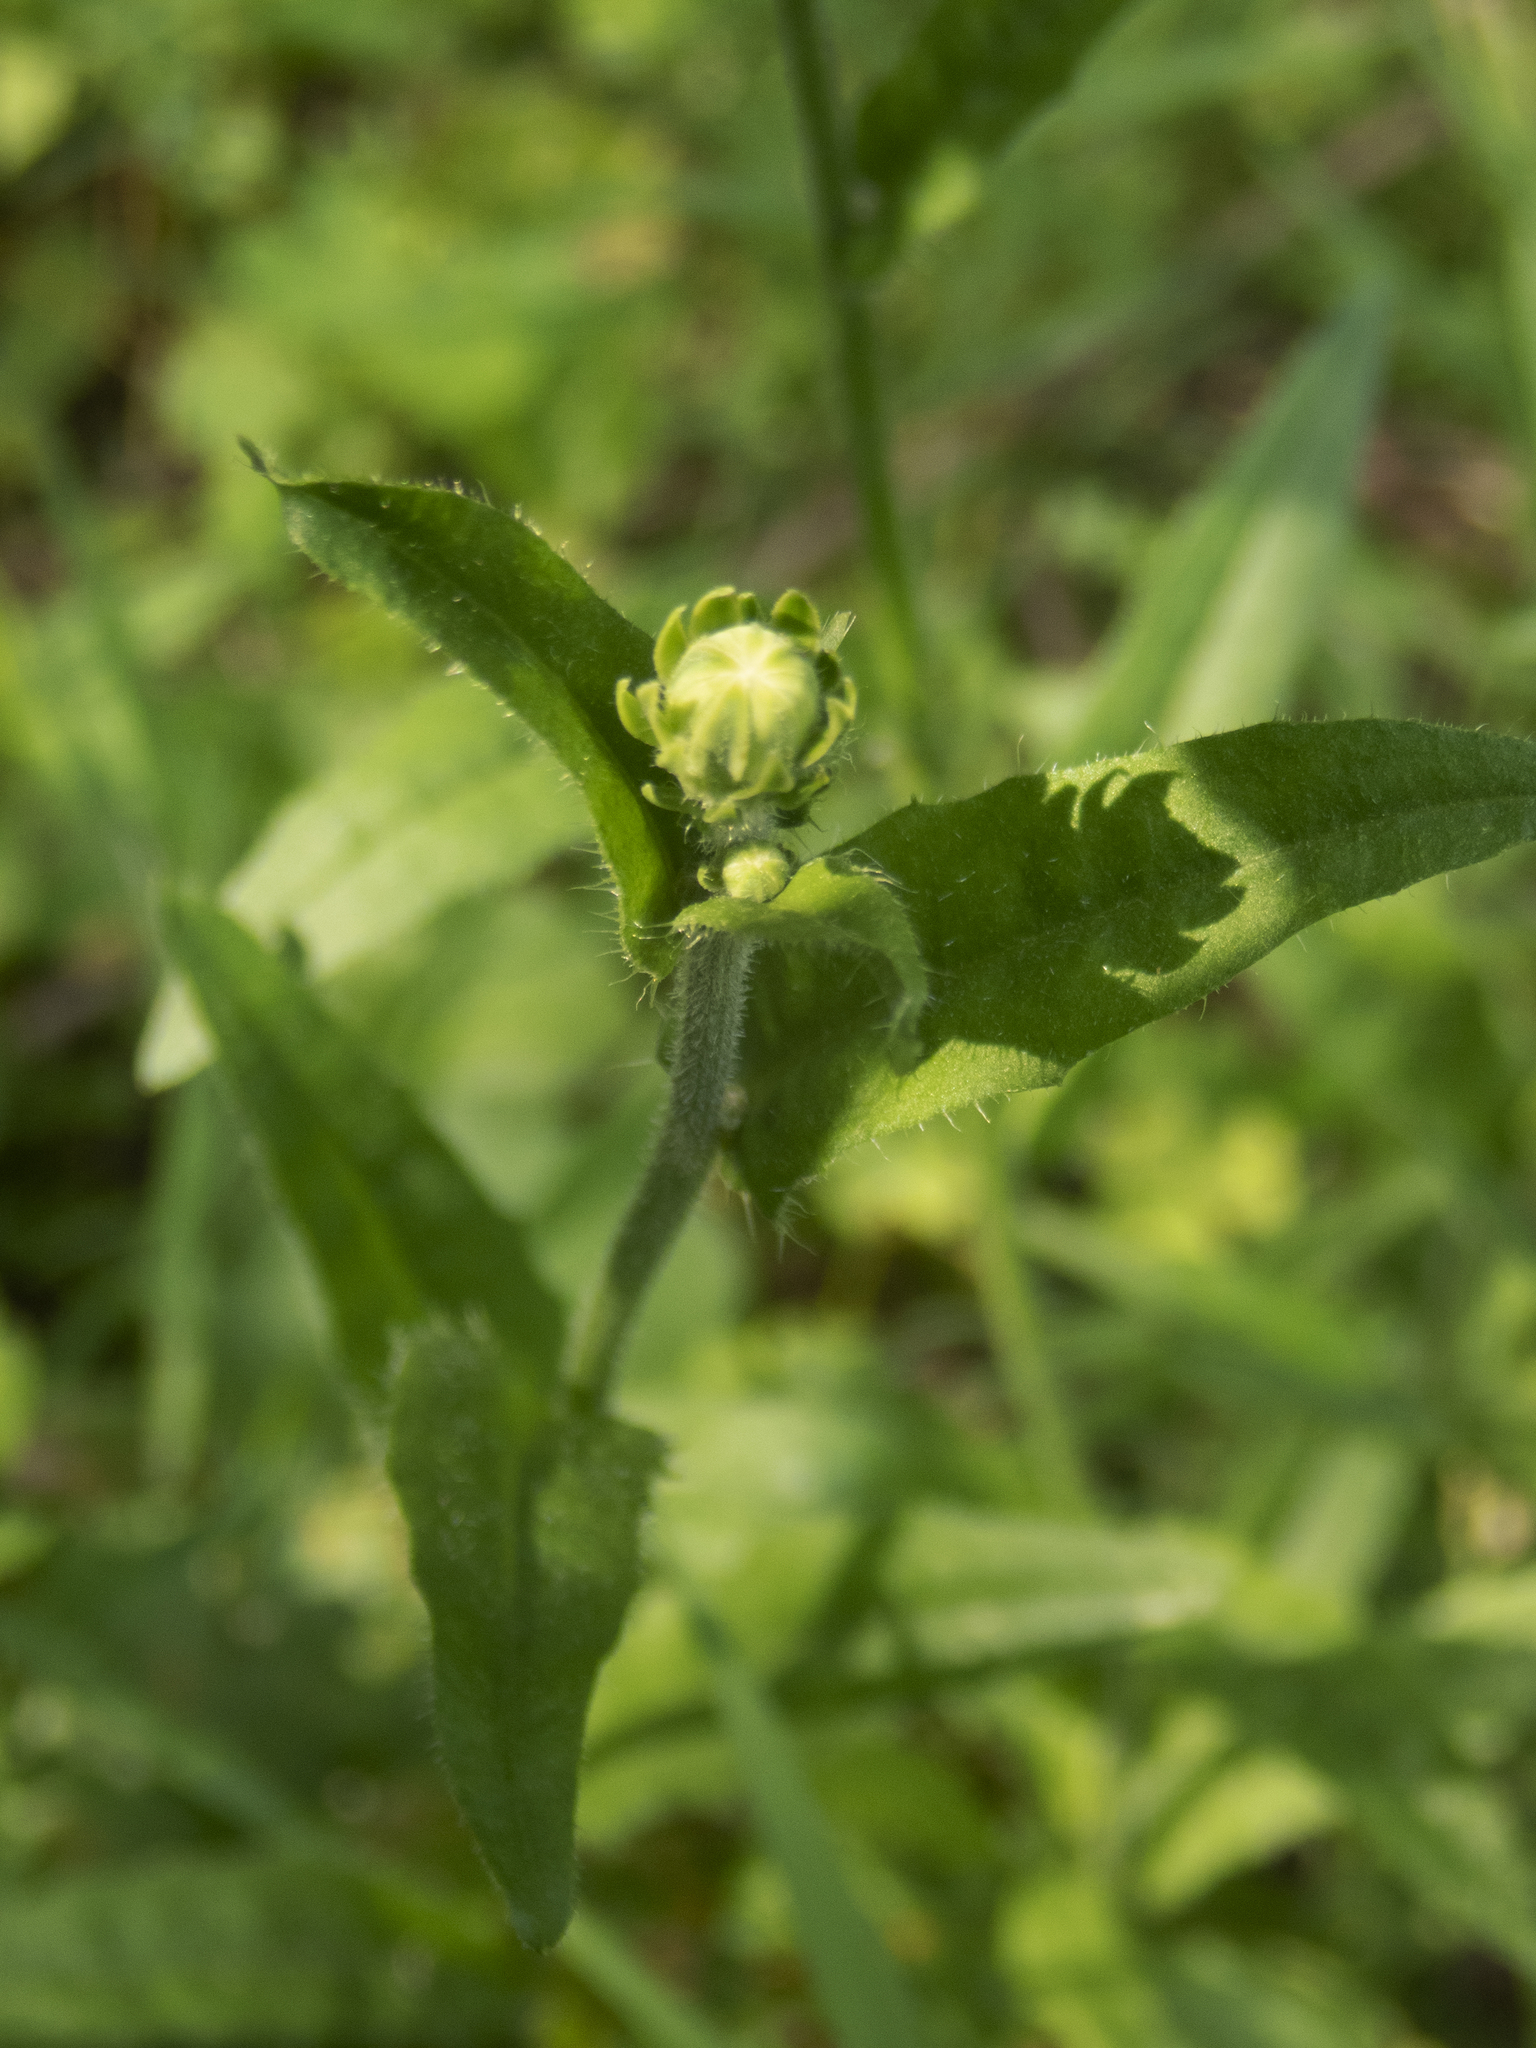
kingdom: Plantae
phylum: Tracheophyta
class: Magnoliopsida
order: Asterales
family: Asteraceae
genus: Erigeron
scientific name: Erigeron philadelphicus
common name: Robin's-plantain
